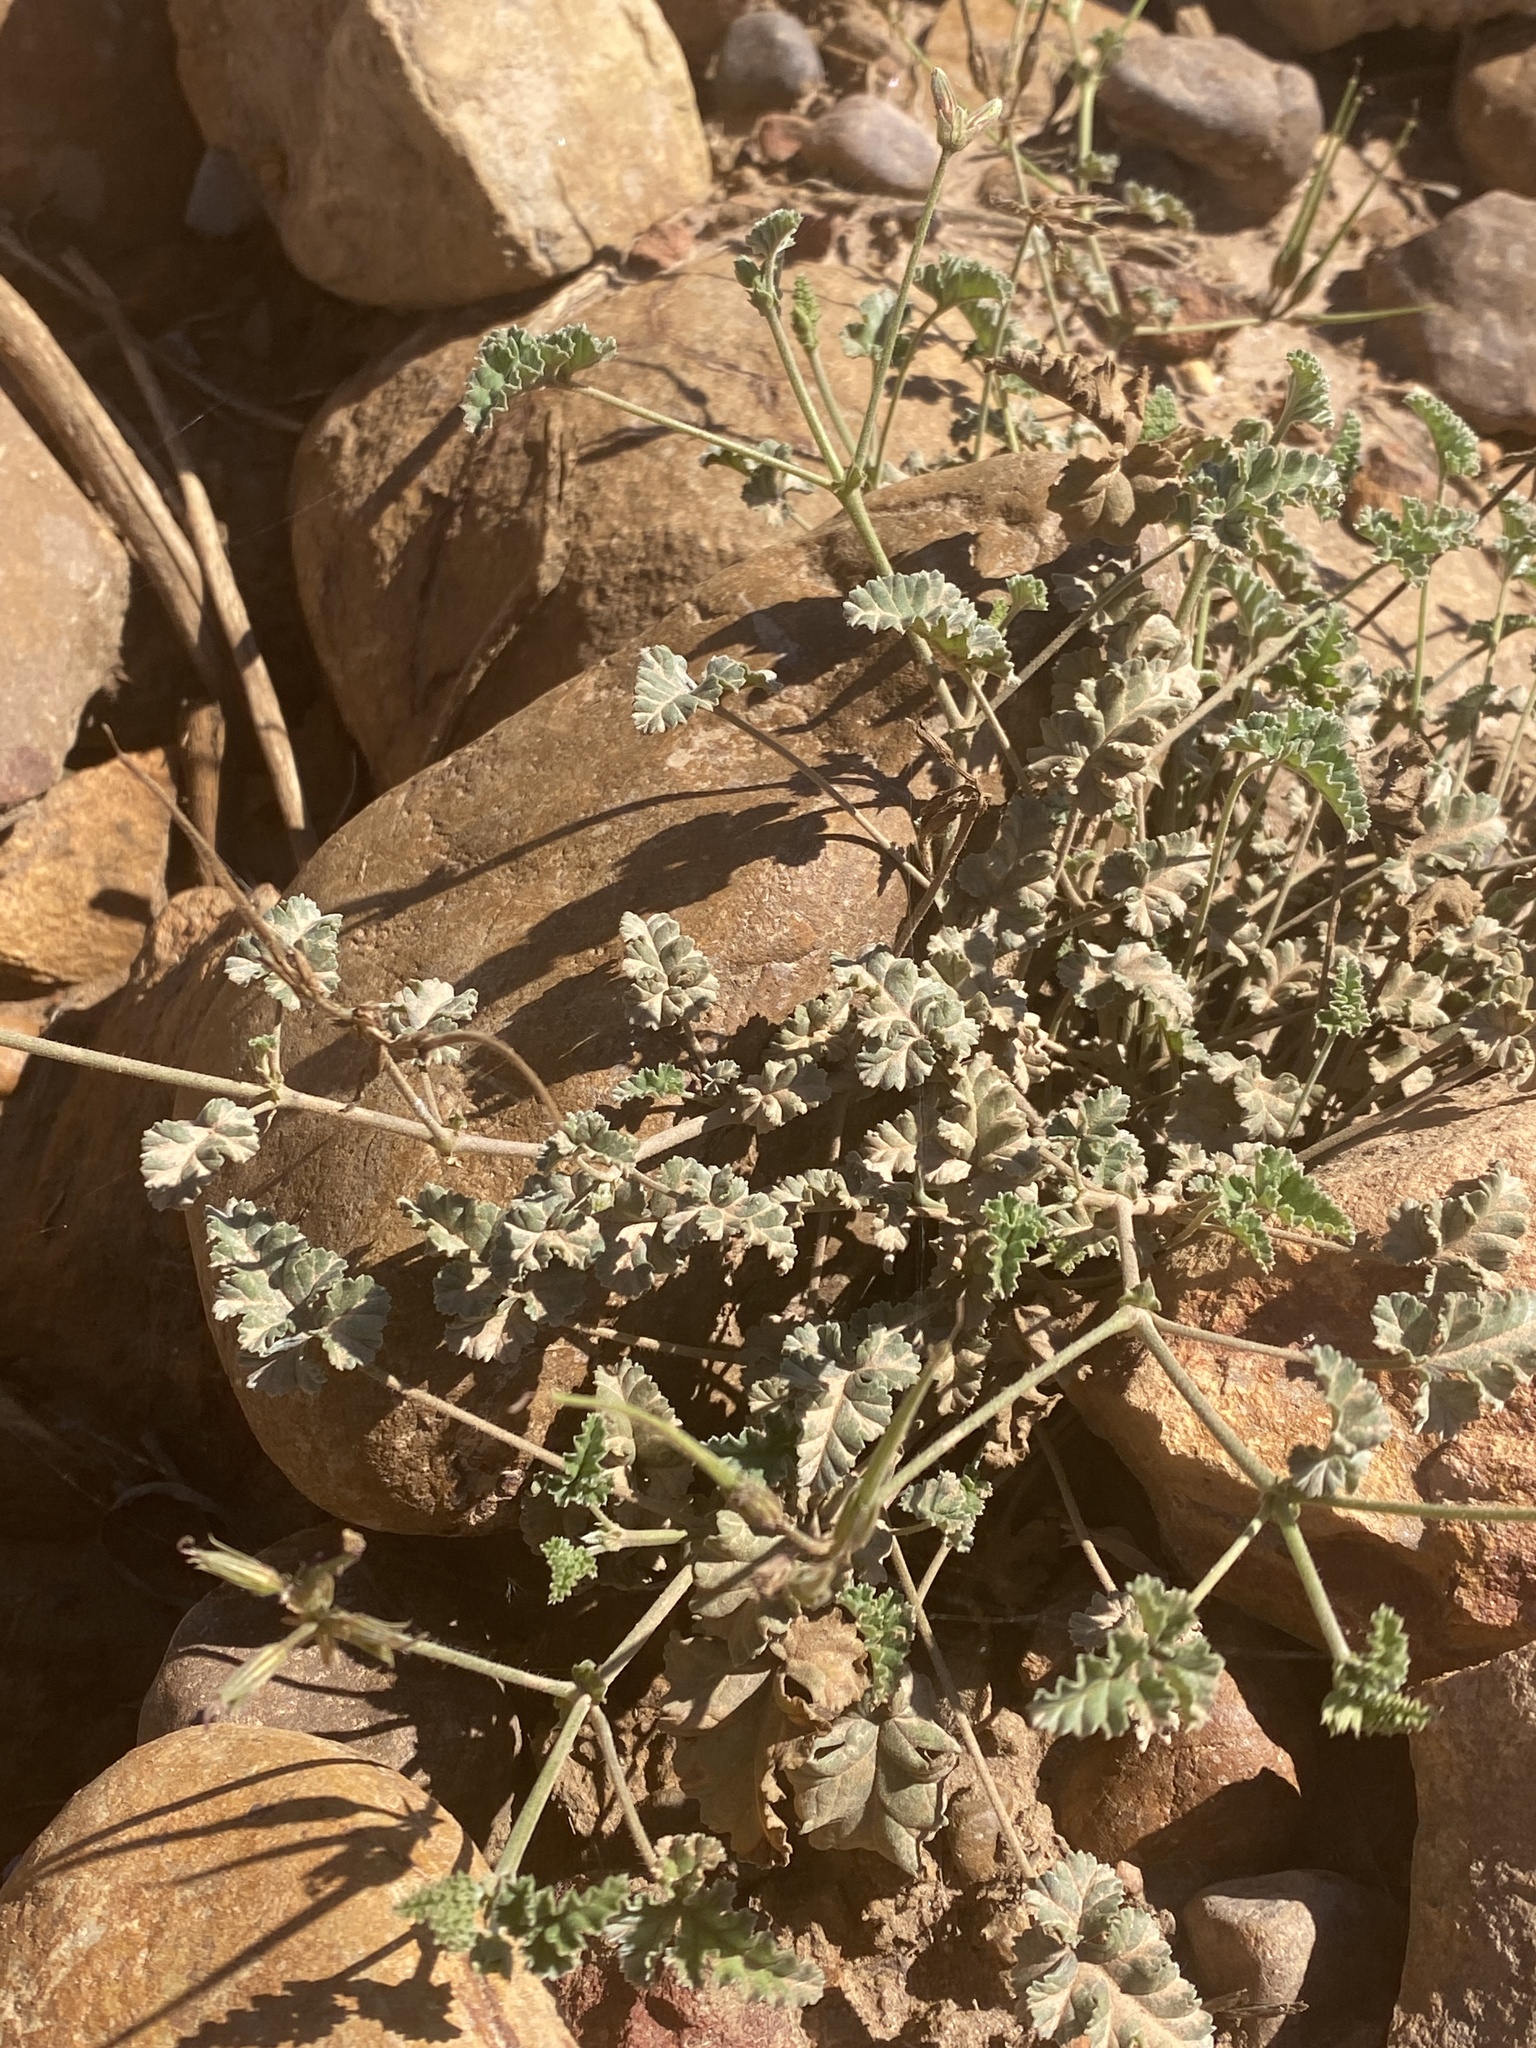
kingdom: Plantae
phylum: Tracheophyta
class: Magnoliopsida
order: Geraniales
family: Geraniaceae
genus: Pelargonium
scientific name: Pelargonium candicans
